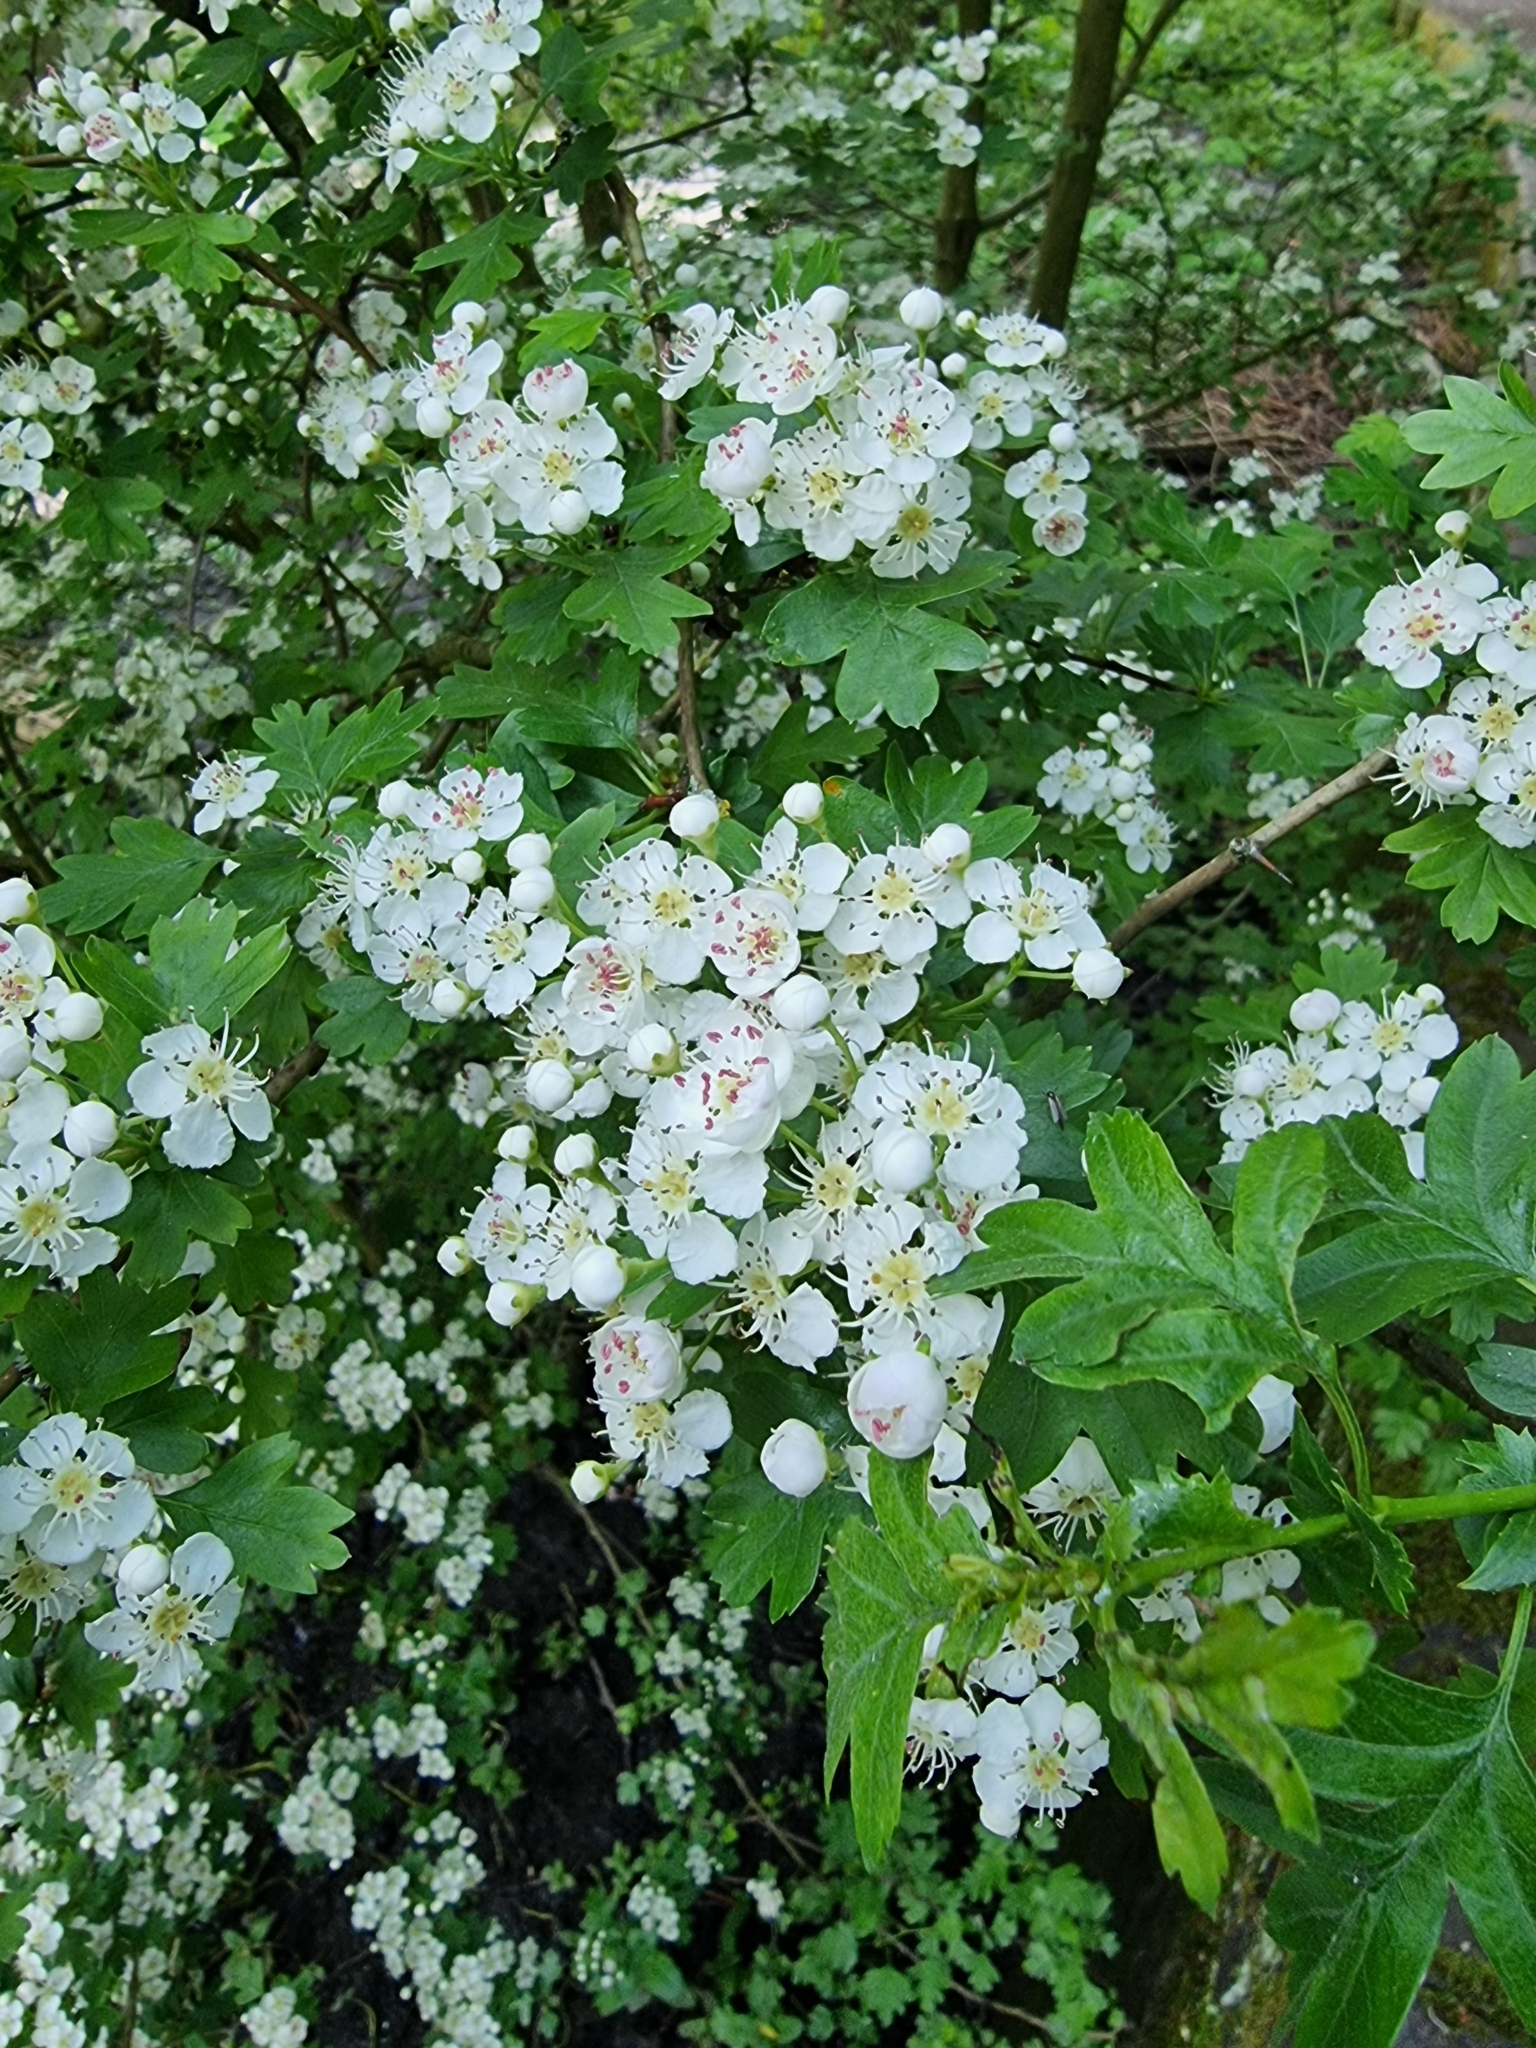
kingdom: Plantae
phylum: Tracheophyta
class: Magnoliopsida
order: Rosales
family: Rosaceae
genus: Crataegus
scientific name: Crataegus monogyna
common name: Hawthorn
